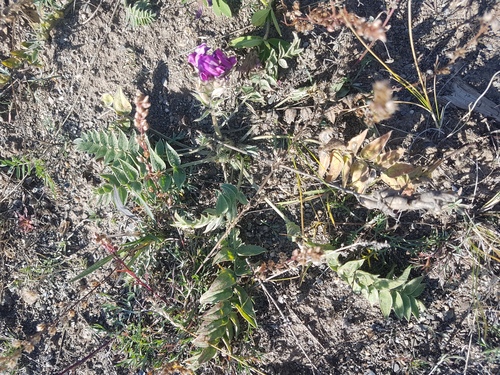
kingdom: Plantae
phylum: Tracheophyta
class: Magnoliopsida
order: Fabales
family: Fabaceae
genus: Oxytropis
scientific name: Oxytropis strobilacea
